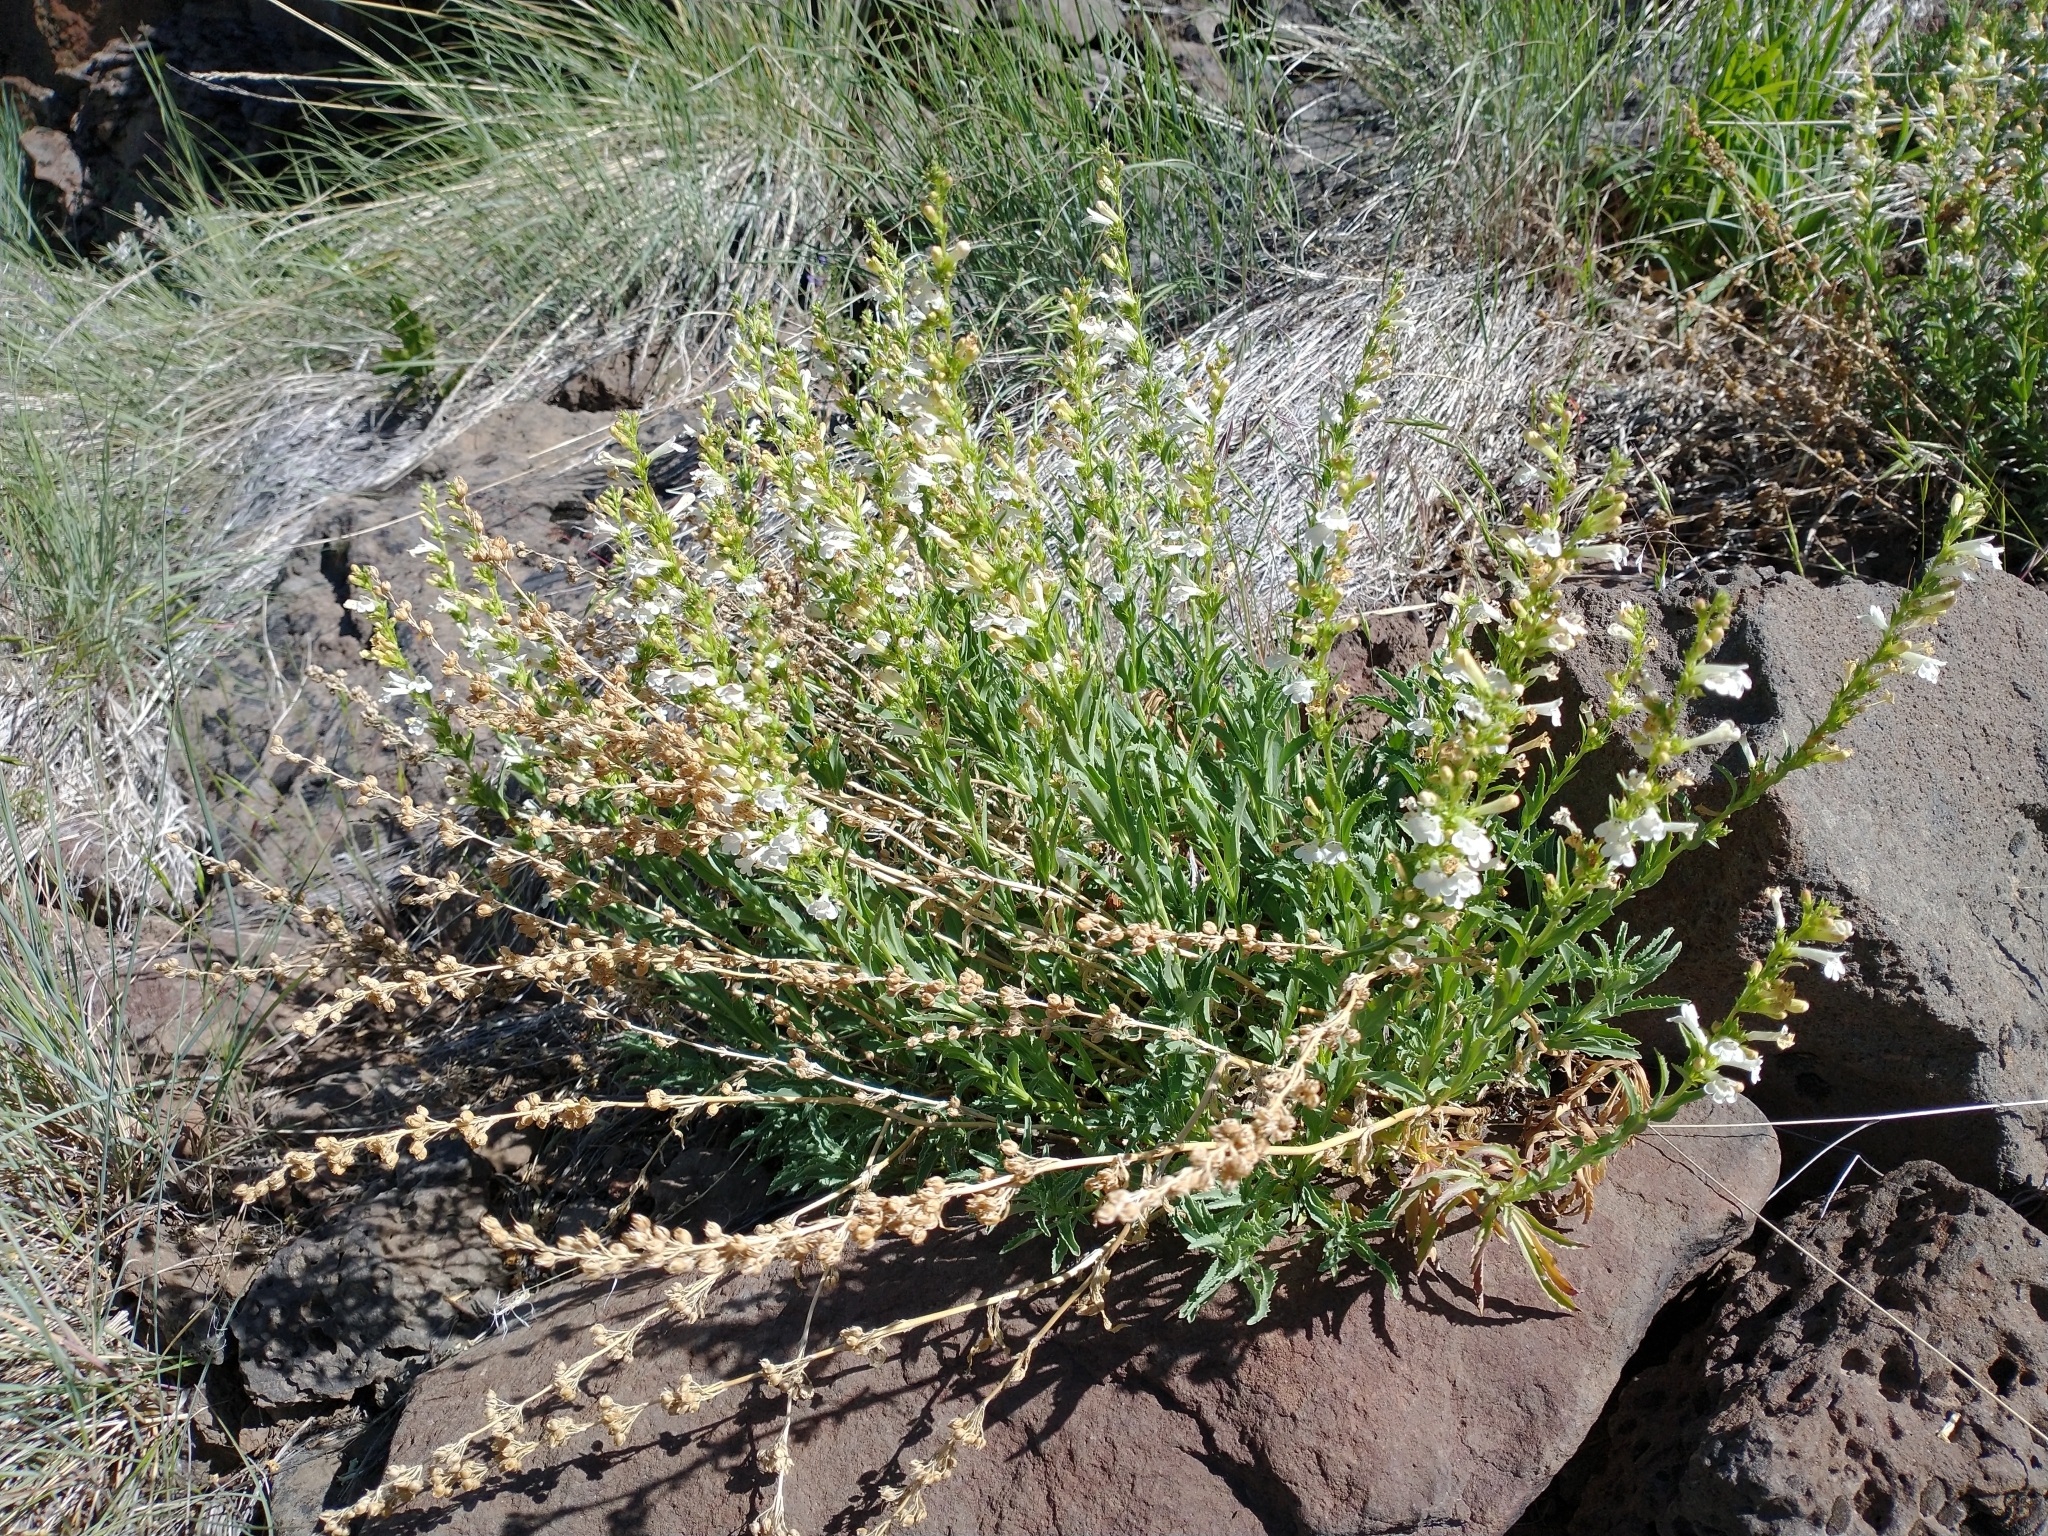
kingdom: Plantae
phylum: Tracheophyta
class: Magnoliopsida
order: Lamiales
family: Plantaginaceae
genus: Penstemon
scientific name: Penstemon deustus
